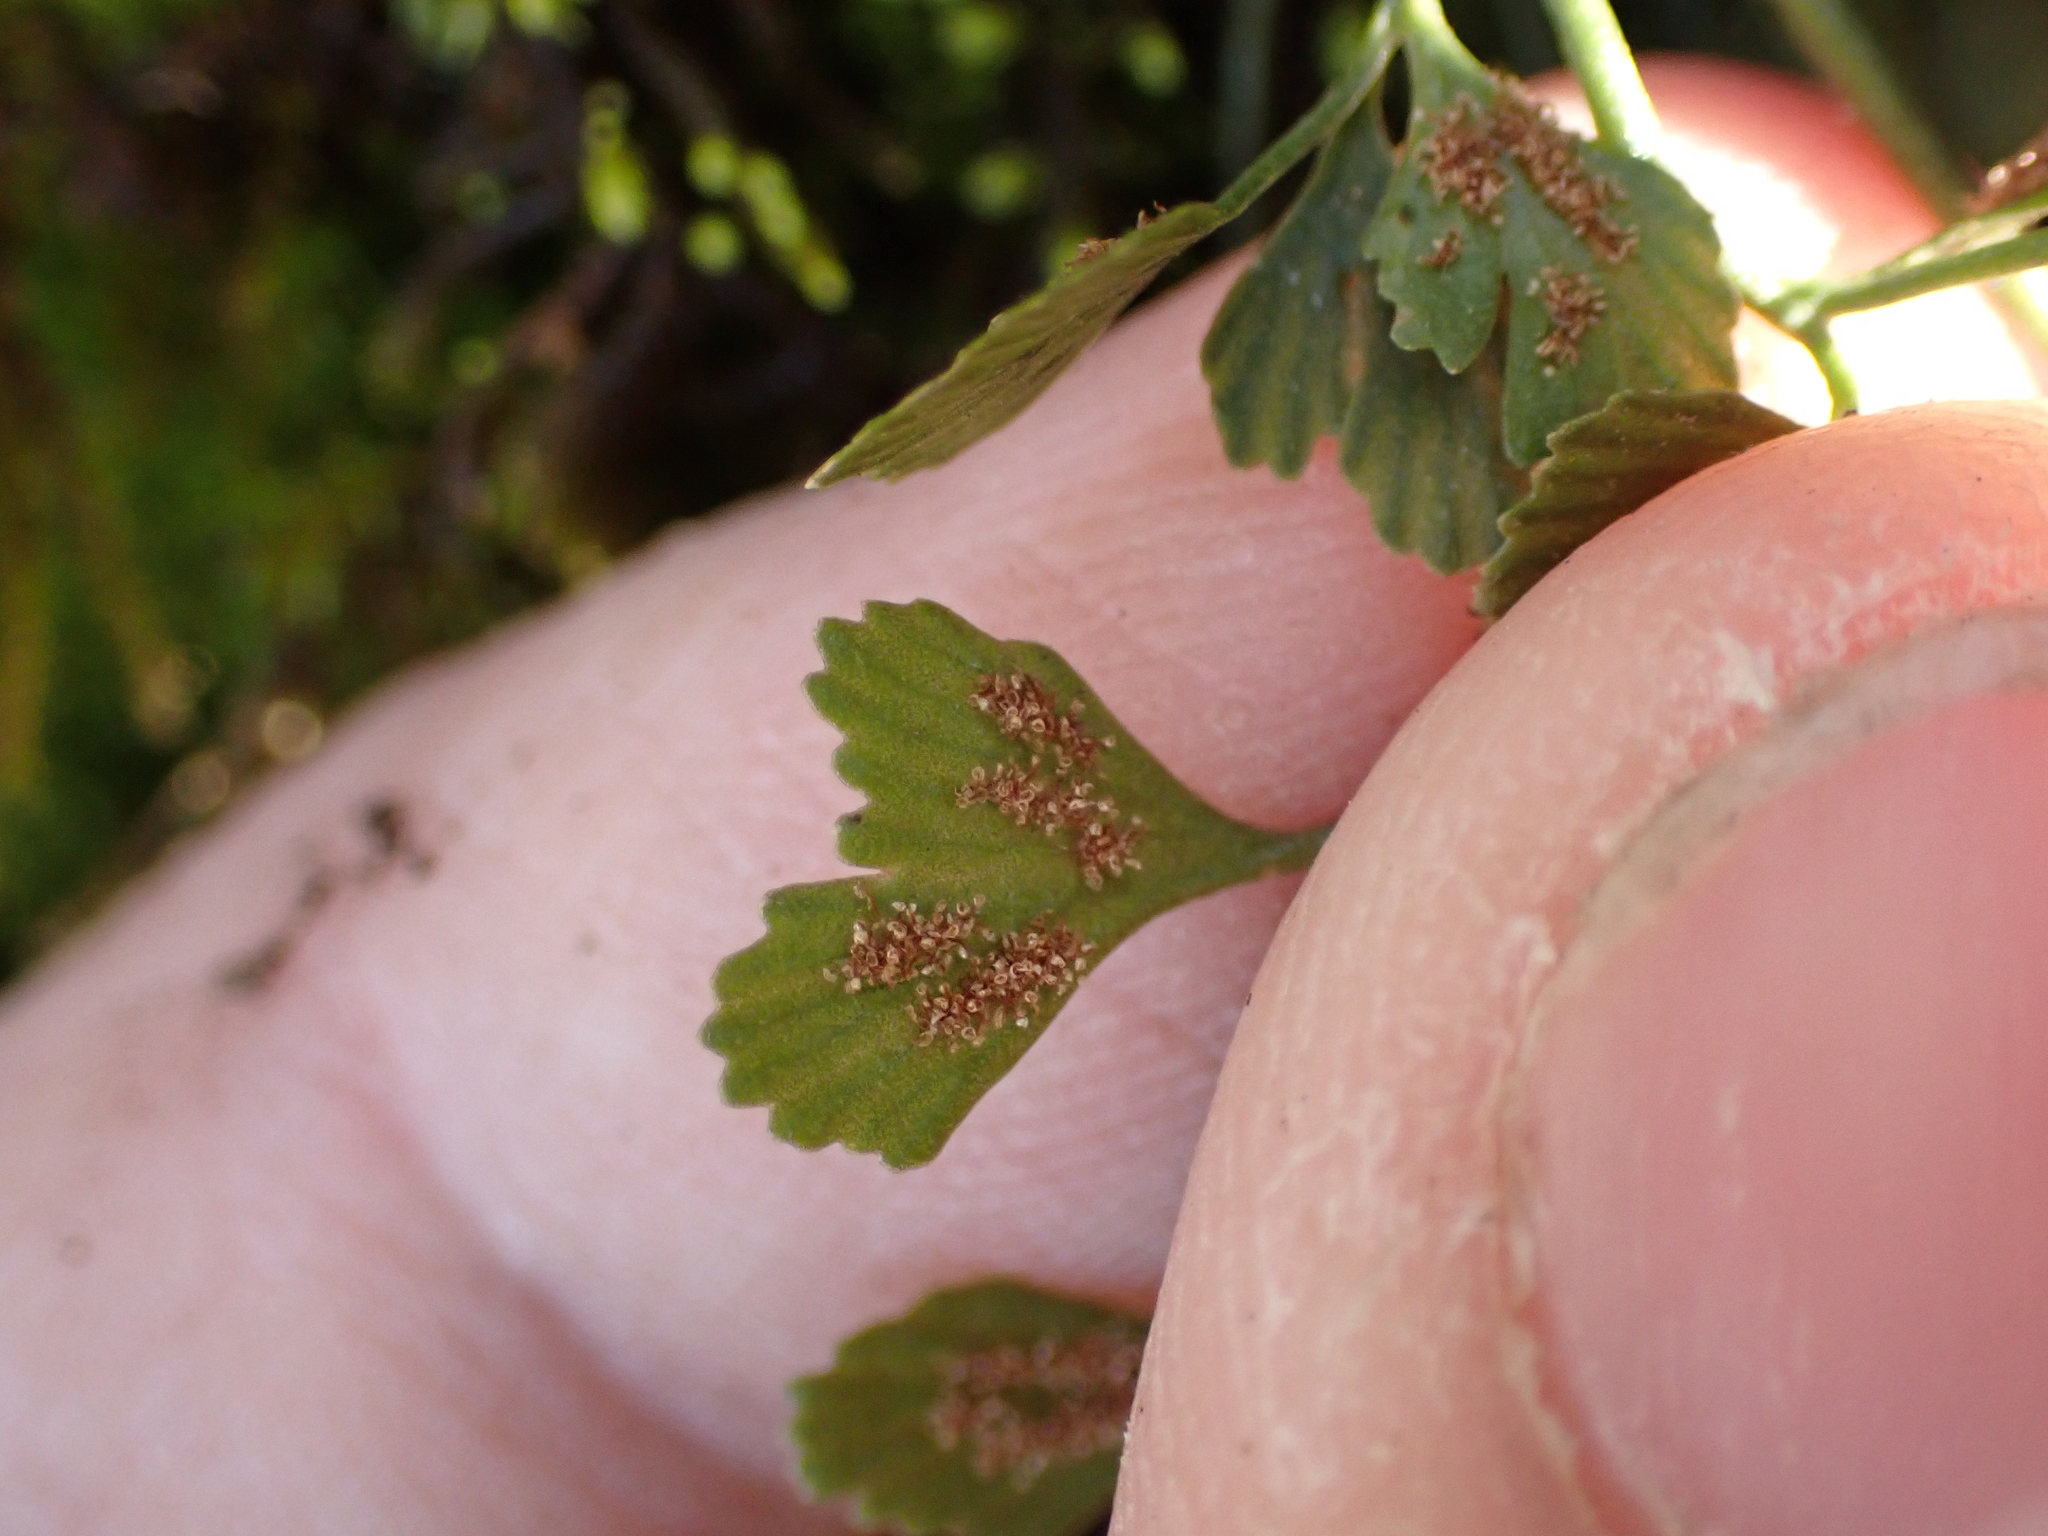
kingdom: Plantae
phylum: Tracheophyta
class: Polypodiopsida
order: Polypodiales
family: Aspleniaceae
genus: Asplenium
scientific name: Asplenium ruta-muraria
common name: Wall-rue
